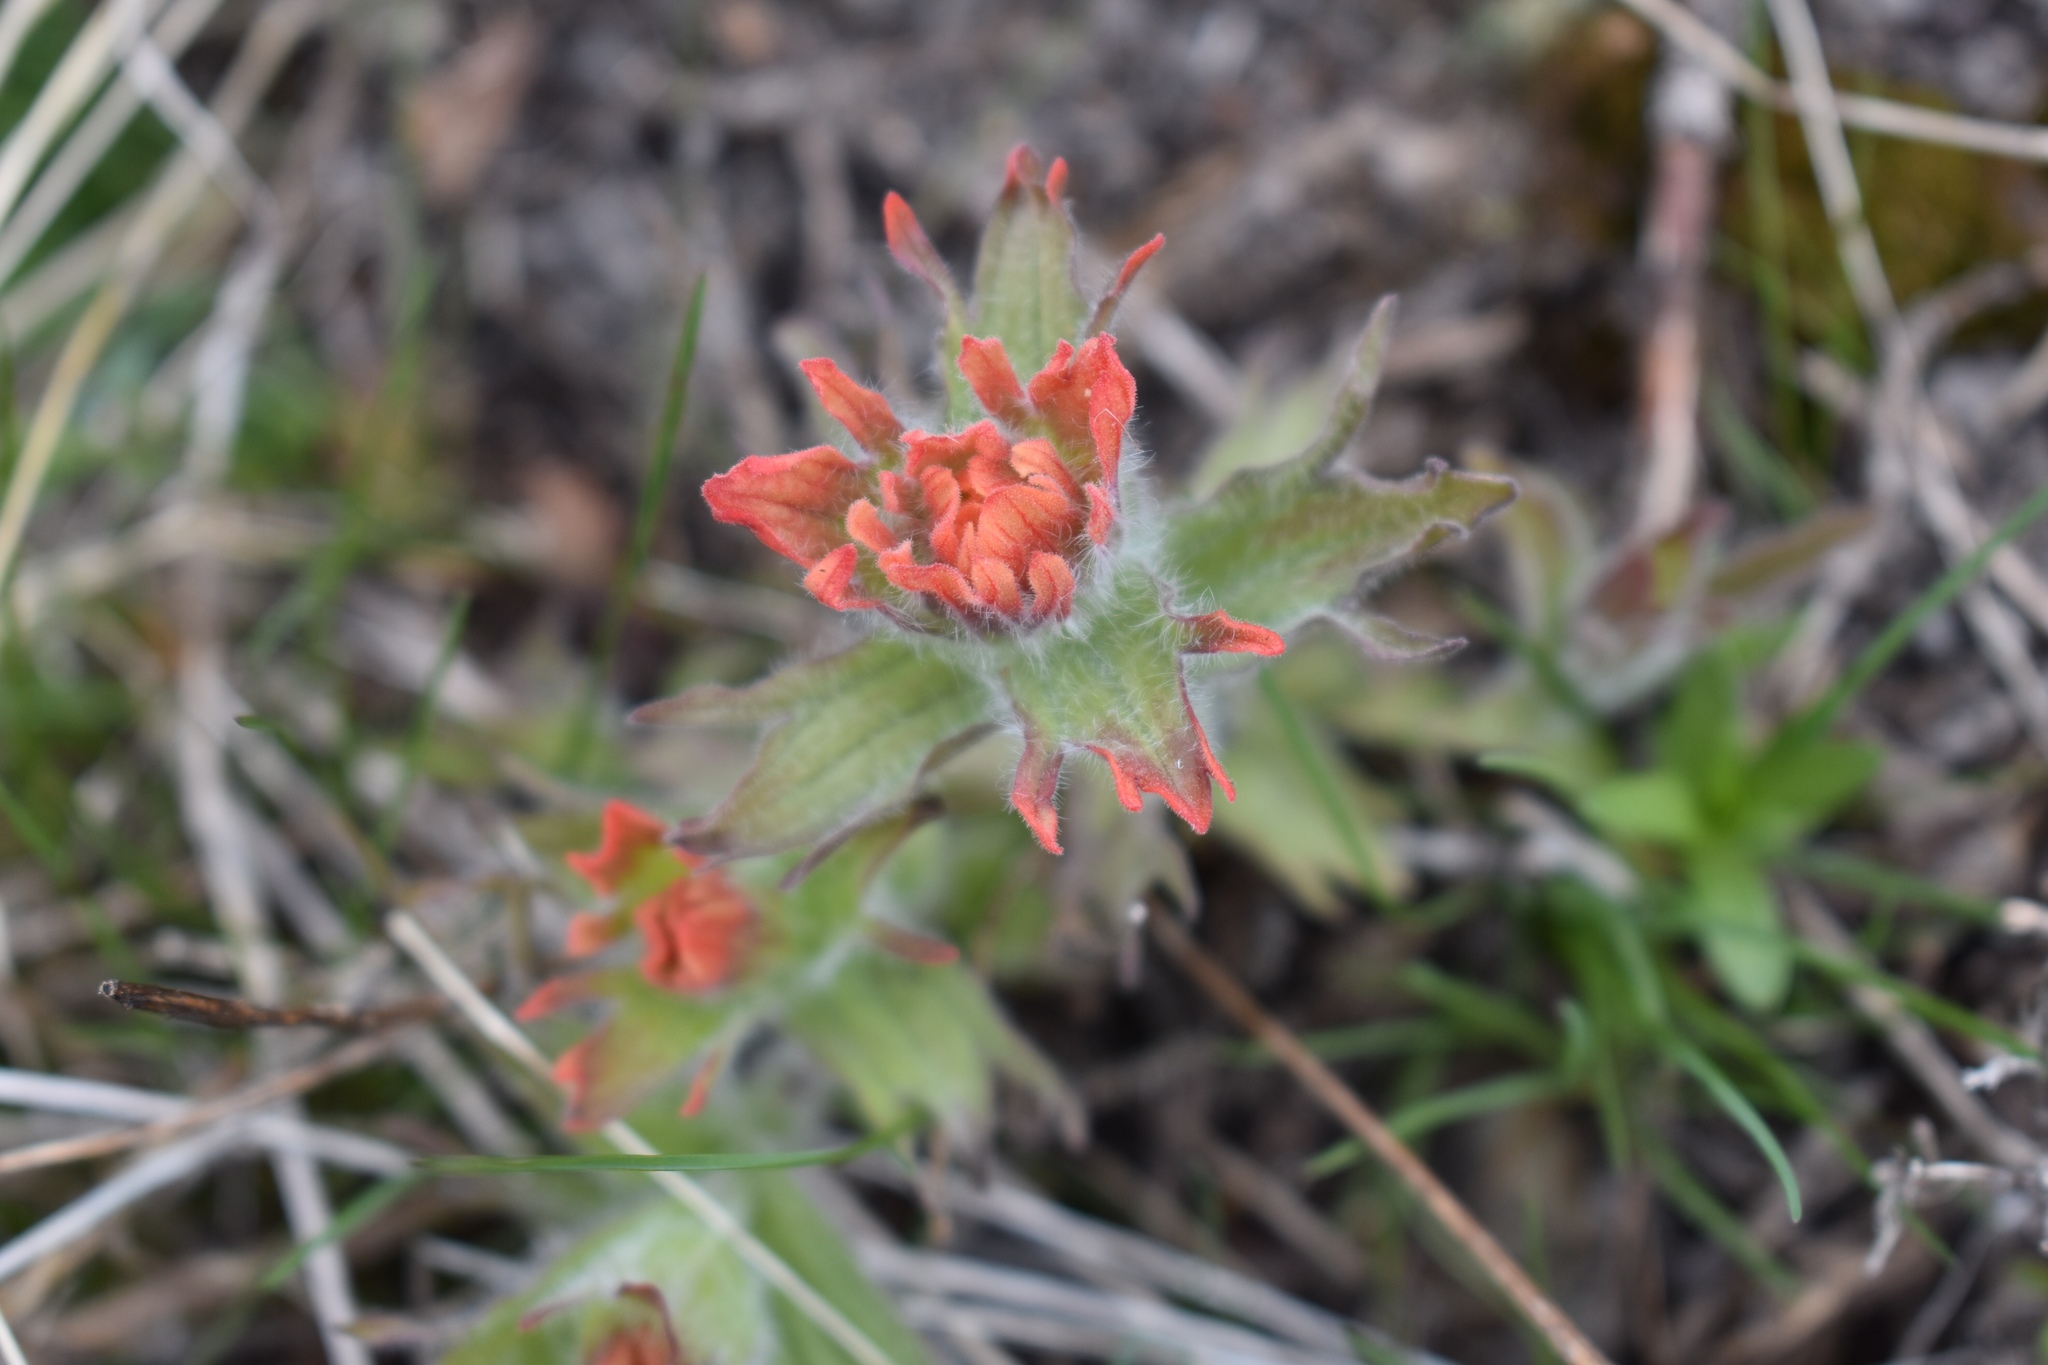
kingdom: Plantae
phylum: Tracheophyta
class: Magnoliopsida
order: Lamiales
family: Orobanchaceae
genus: Castilleja
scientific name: Castilleja hispida
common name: Bristly paintbrush
